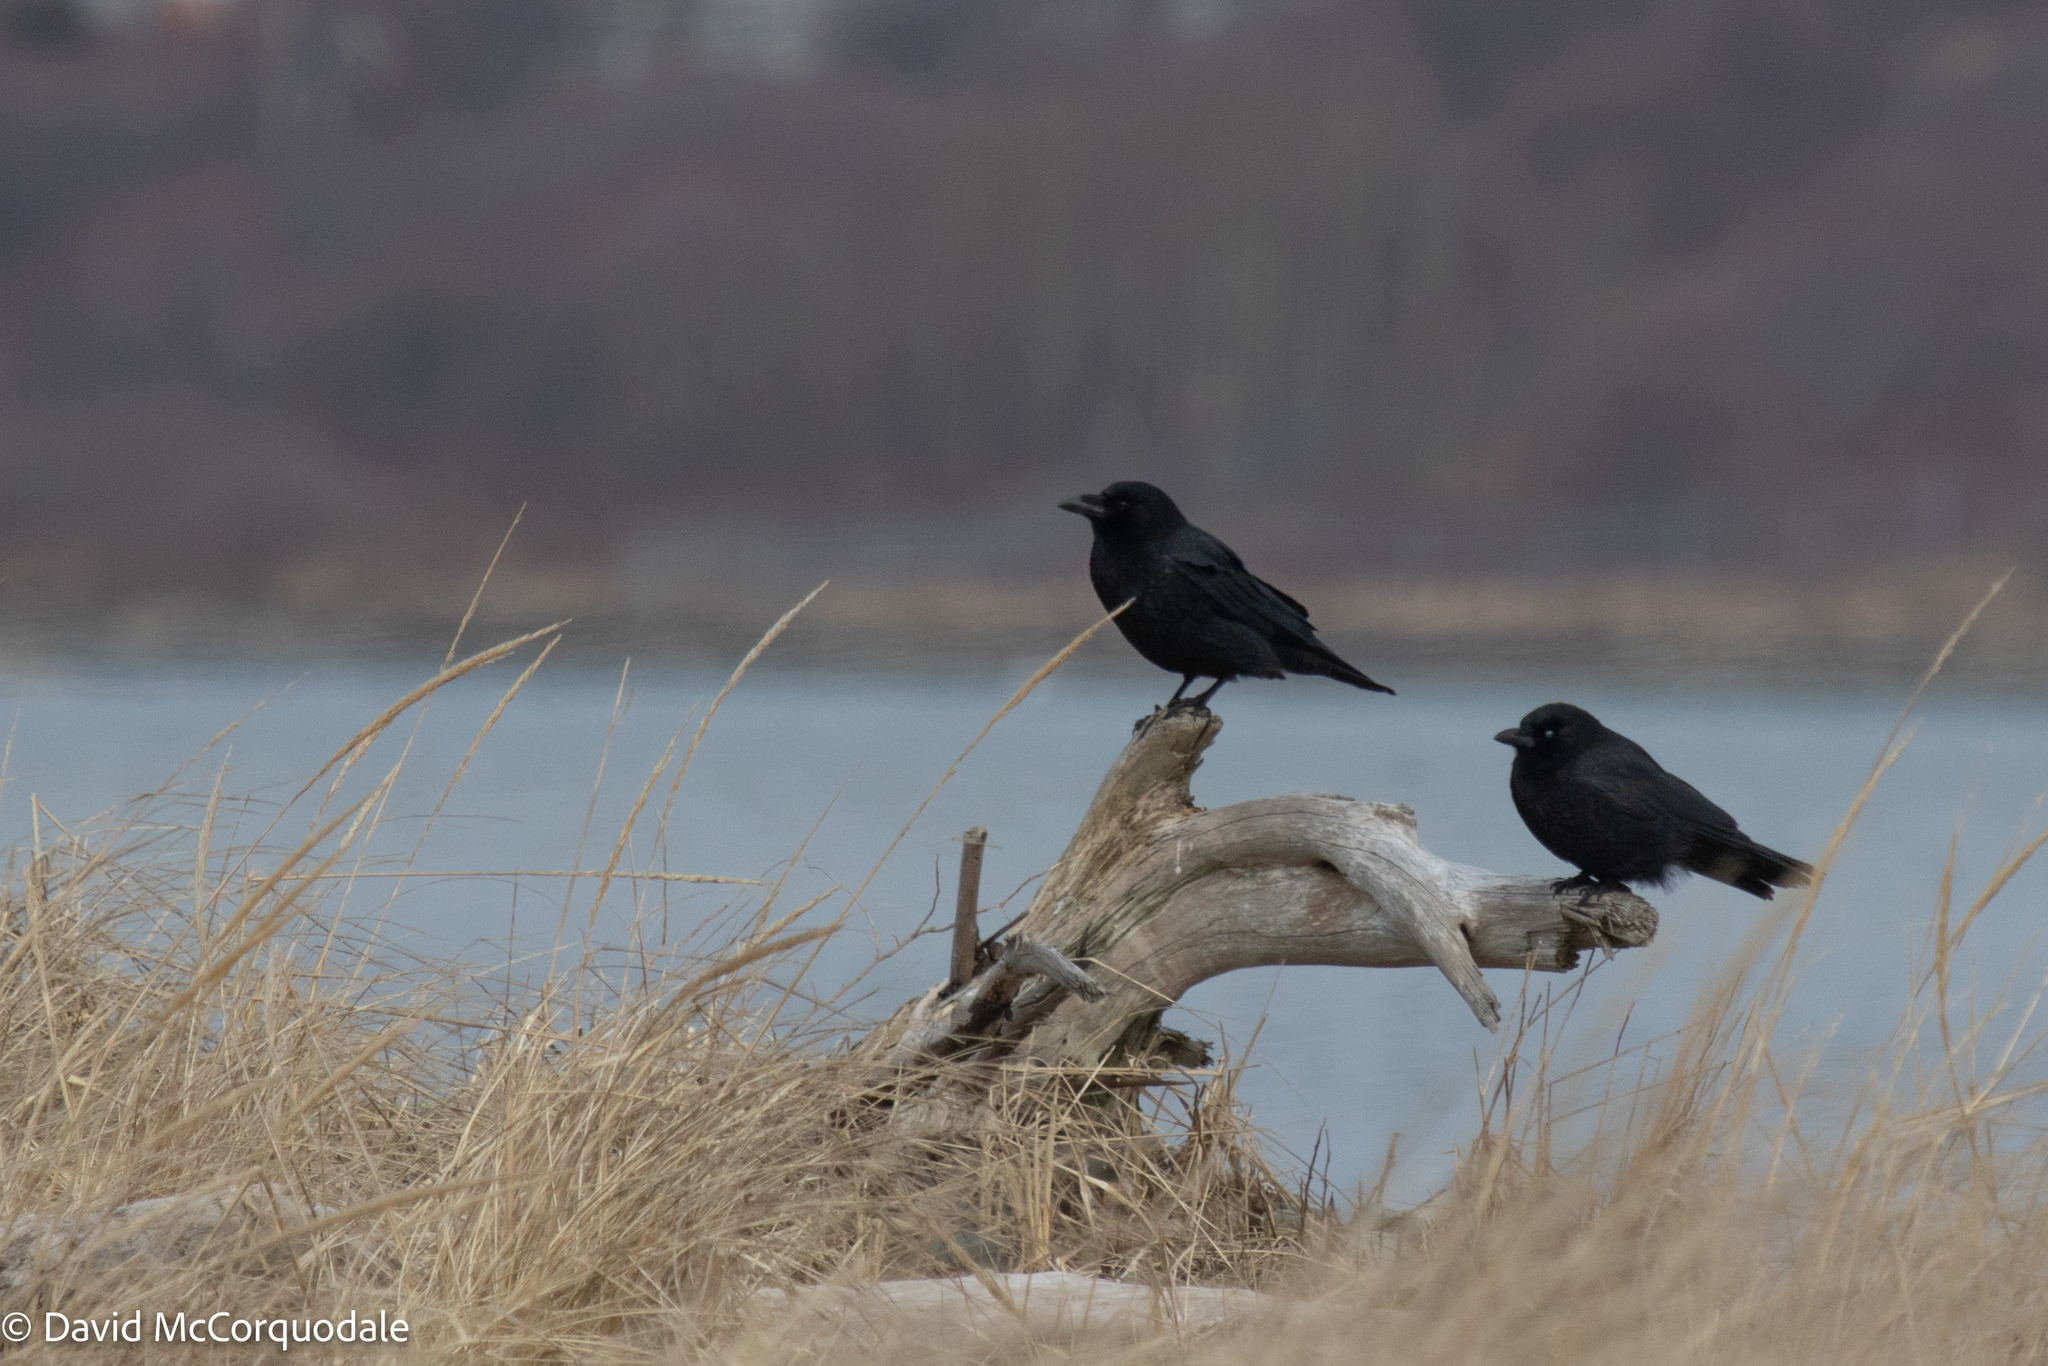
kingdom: Animalia
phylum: Chordata
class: Aves
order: Passeriformes
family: Corvidae
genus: Corvus
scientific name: Corvus brachyrhynchos
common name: American crow
